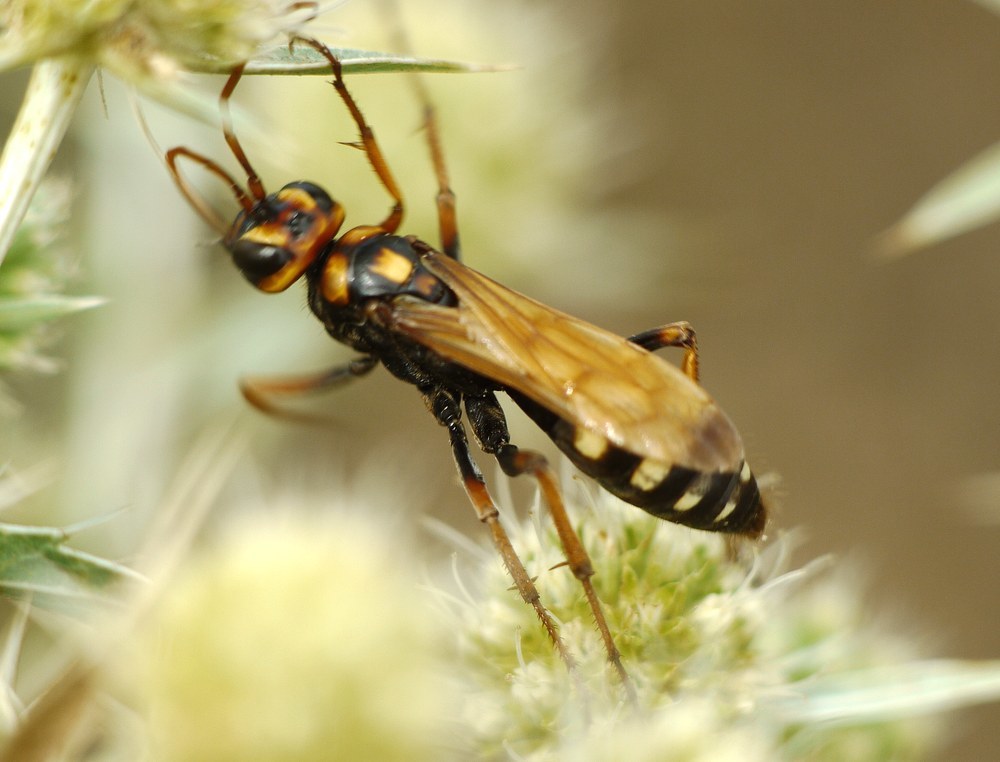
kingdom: Animalia
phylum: Arthropoda
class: Insecta
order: Hymenoptera
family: Pompilidae
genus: Cryptocheilus
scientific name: Cryptocheilus octomaculatus
